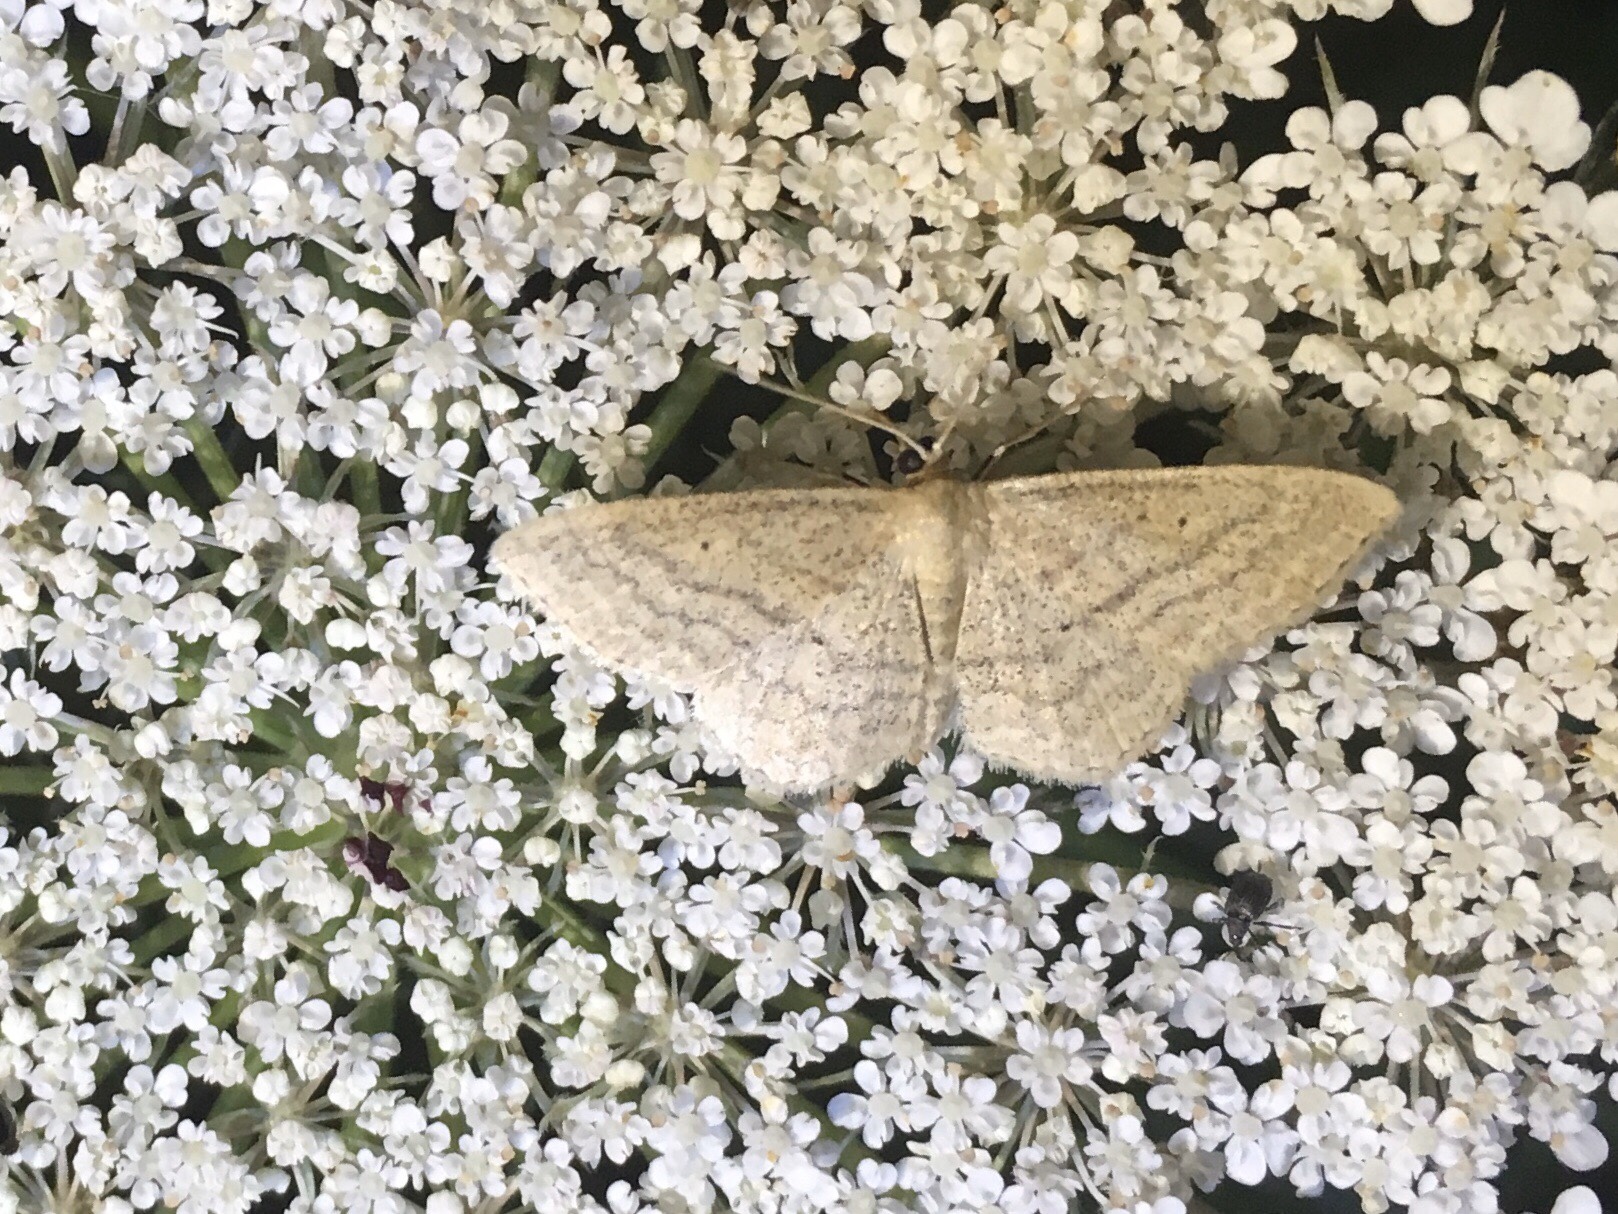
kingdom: Animalia
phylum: Arthropoda
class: Insecta
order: Lepidoptera
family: Geometridae
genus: Scopula
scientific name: Scopula inductata
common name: Soft-lined wave
